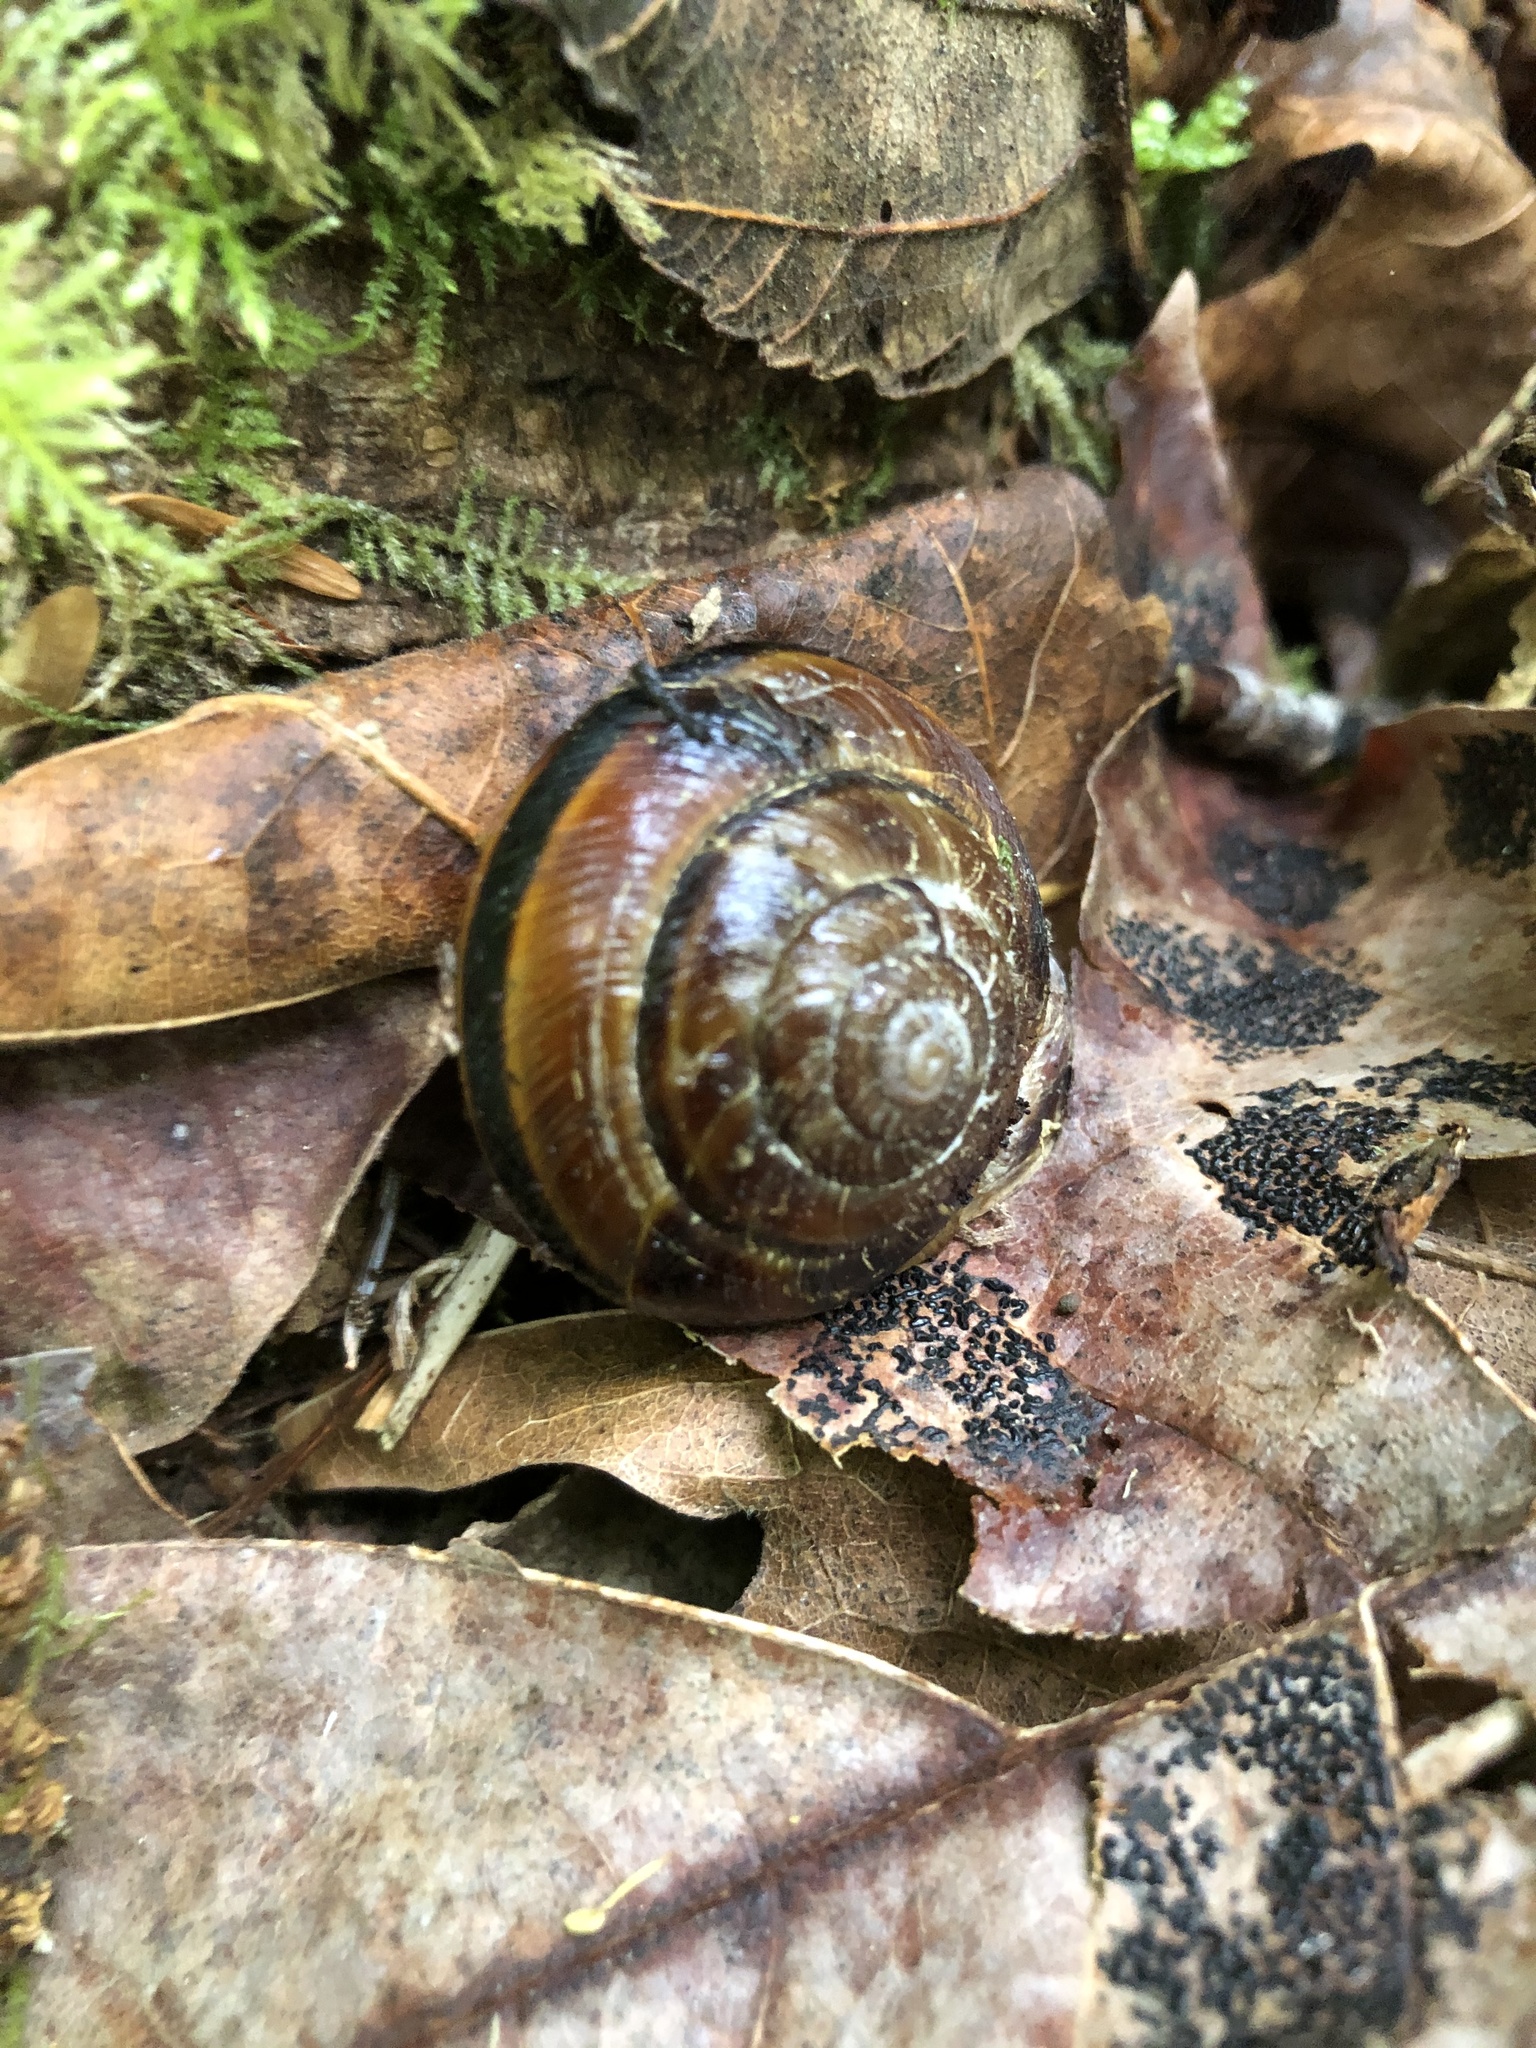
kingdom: Animalia
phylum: Mollusca
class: Gastropoda
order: Stylommatophora
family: Xanthonychidae
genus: Monadenia
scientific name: Monadenia fidelis
